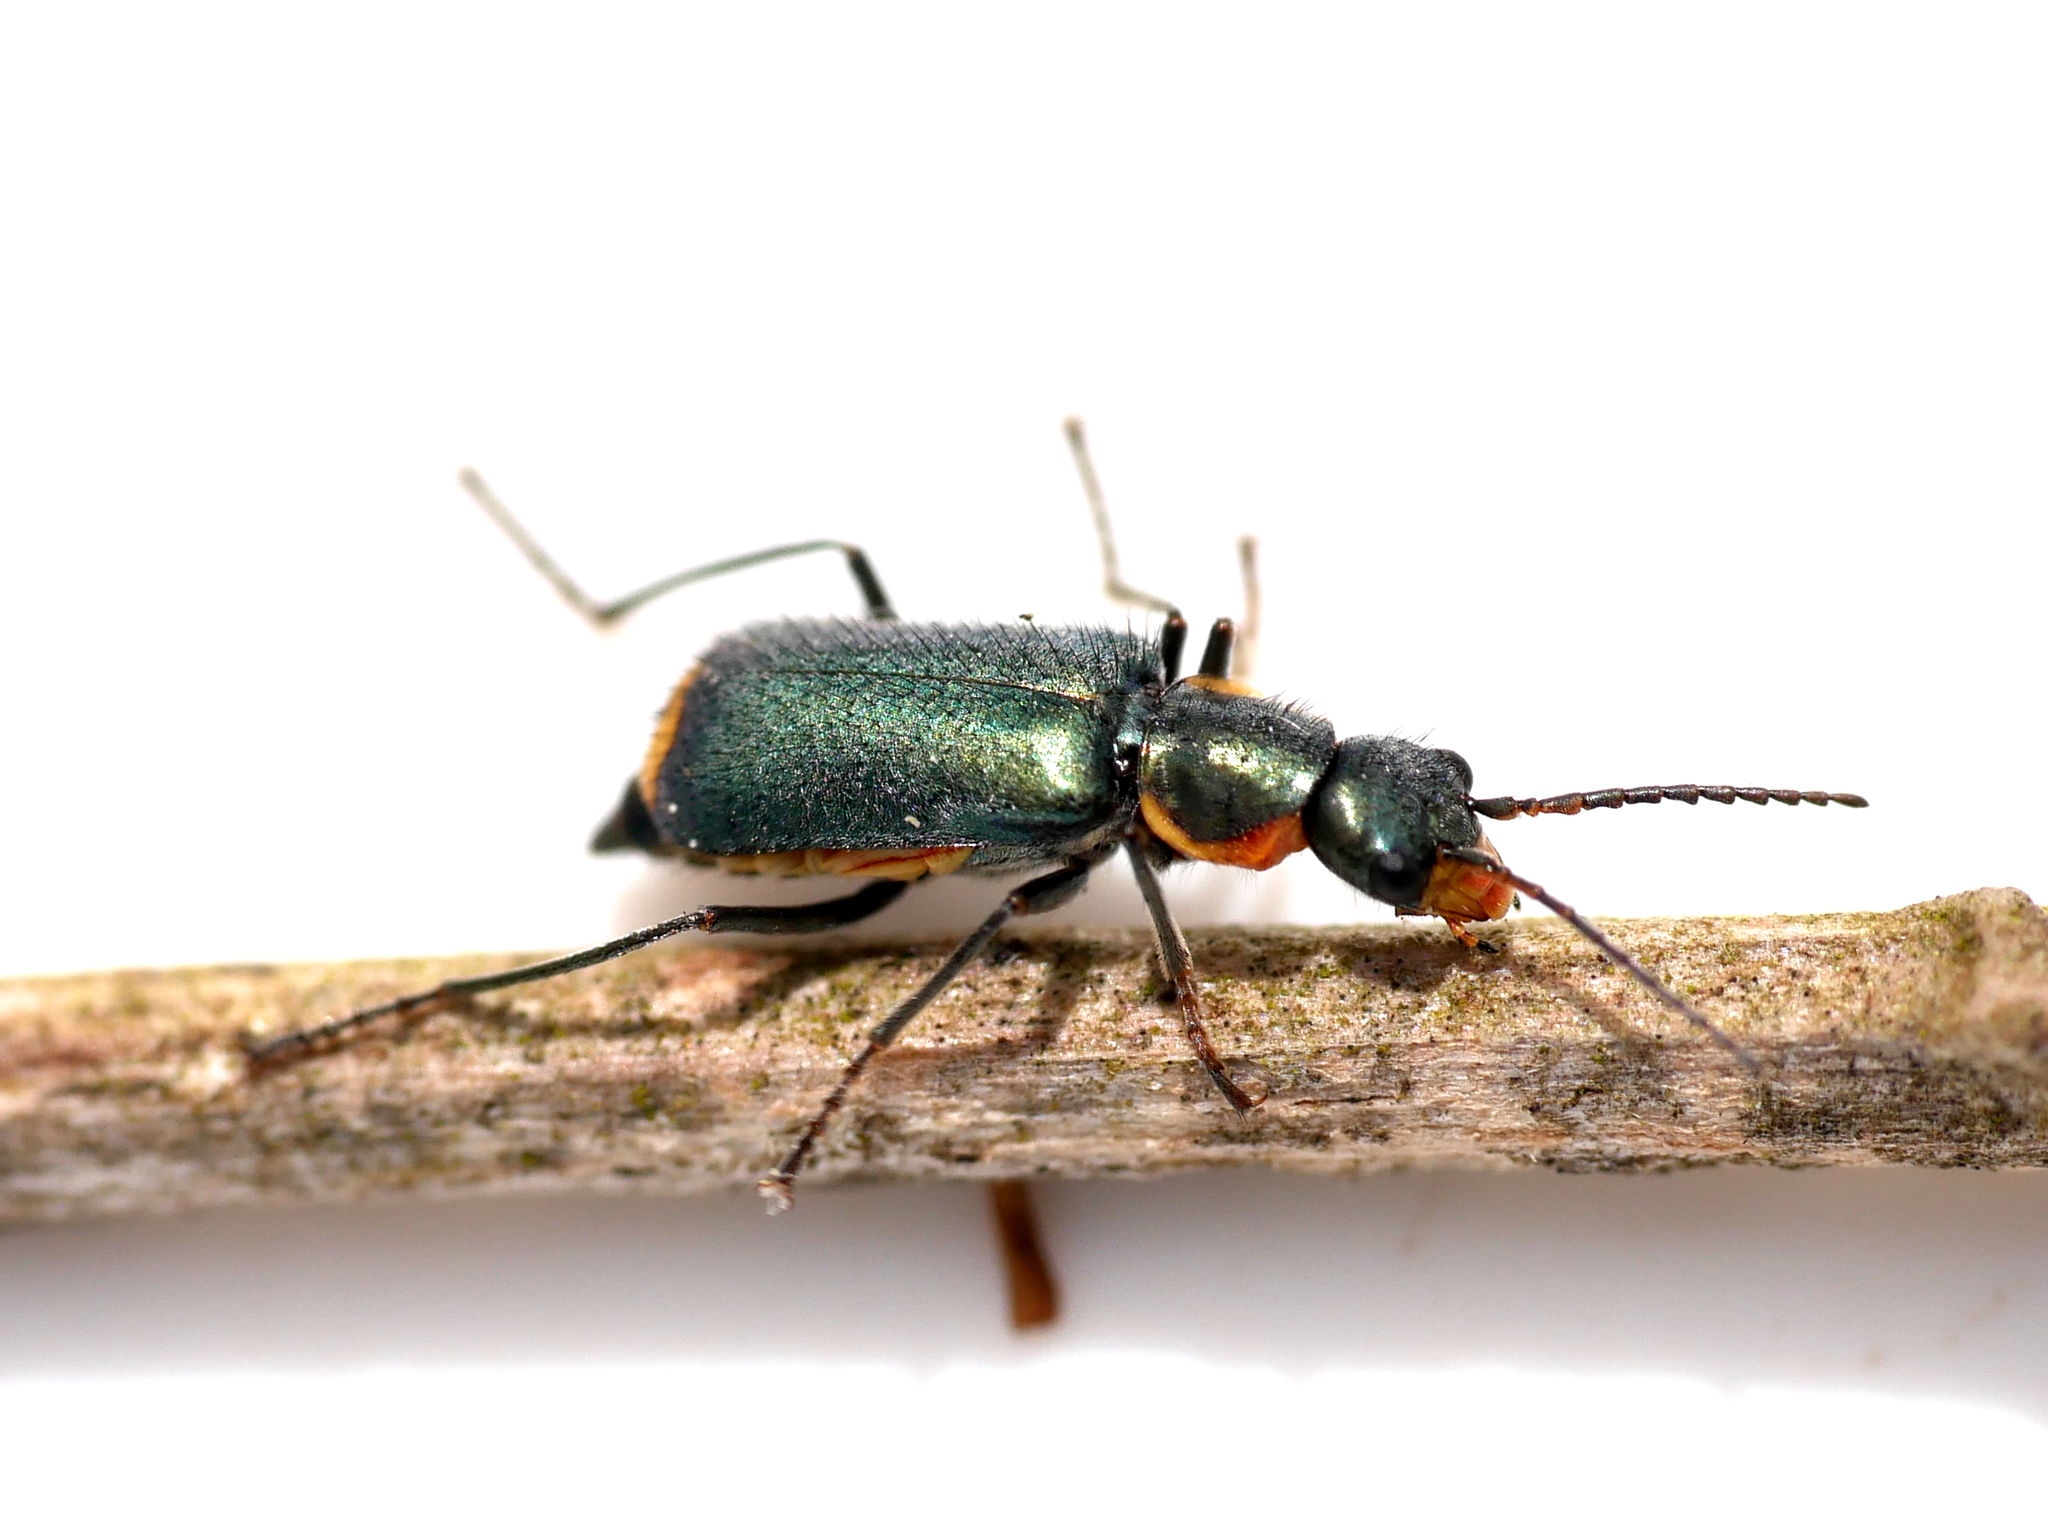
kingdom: Animalia
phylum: Arthropoda
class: Insecta
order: Coleoptera
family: Malachiidae
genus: Clanoptilus
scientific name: Clanoptilus marginellus
